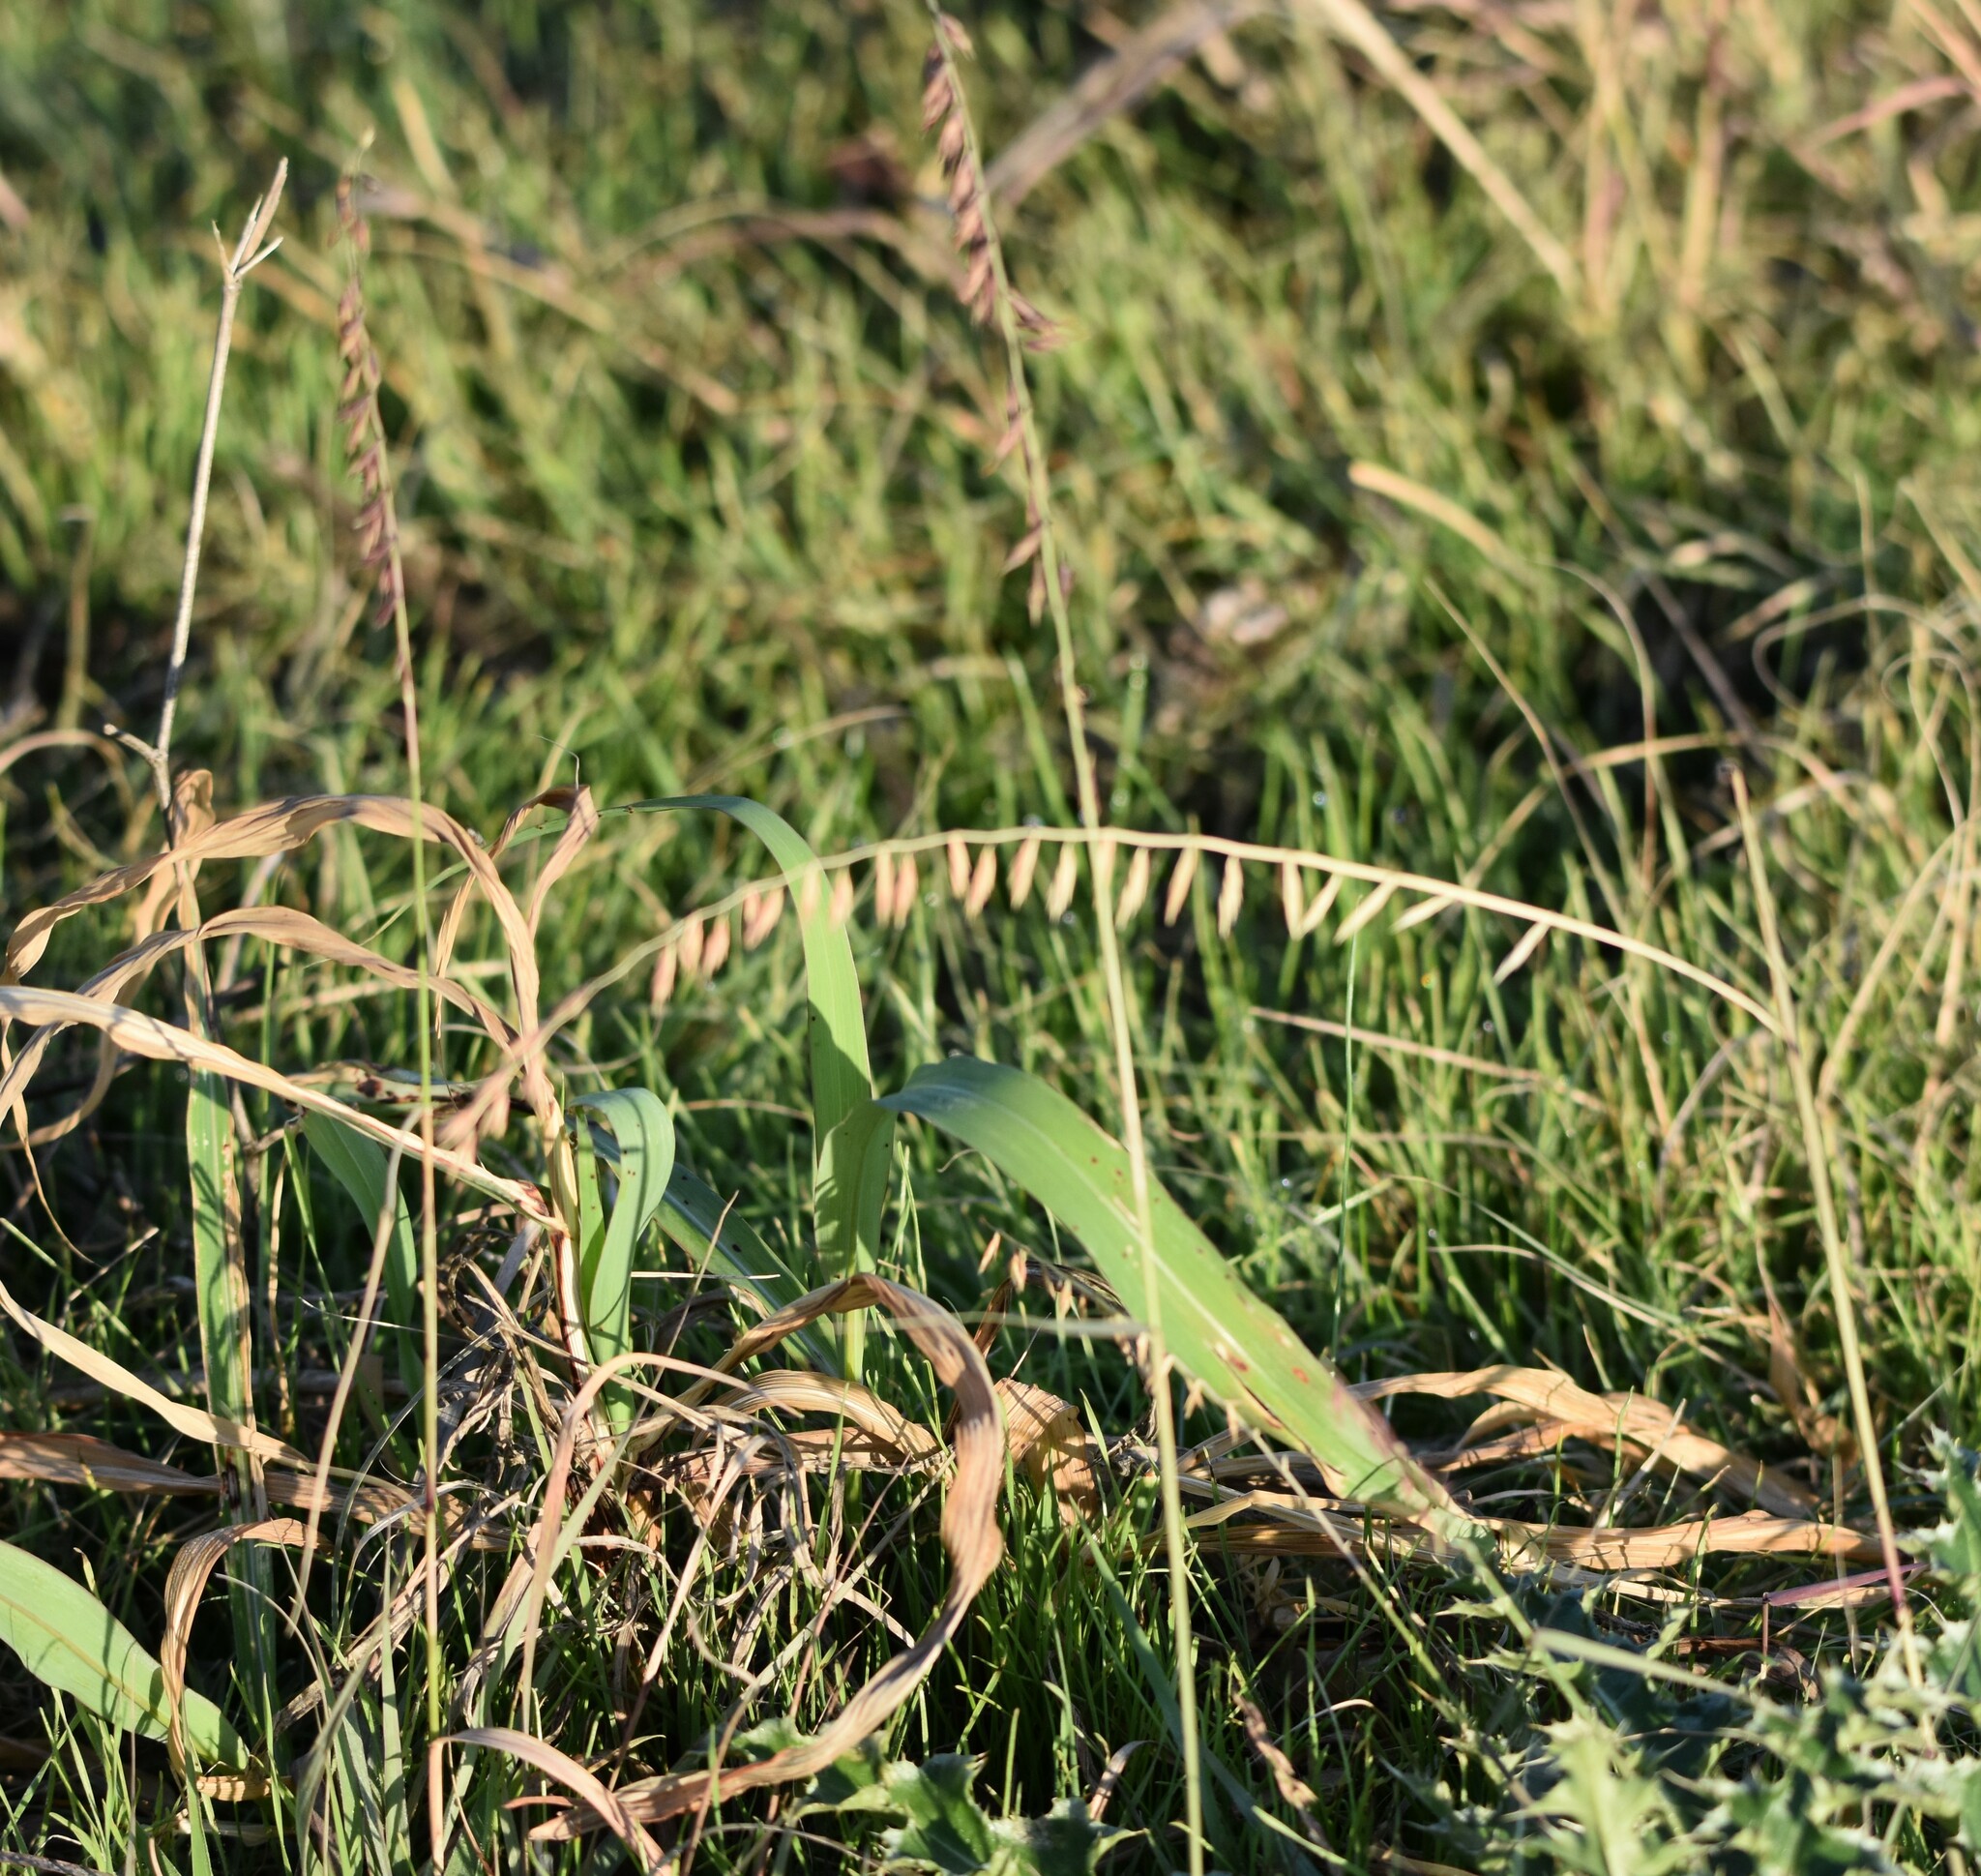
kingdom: Plantae
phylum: Tracheophyta
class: Liliopsida
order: Poales
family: Poaceae
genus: Bouteloua
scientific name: Bouteloua curtipendula
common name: Side-oats grama
